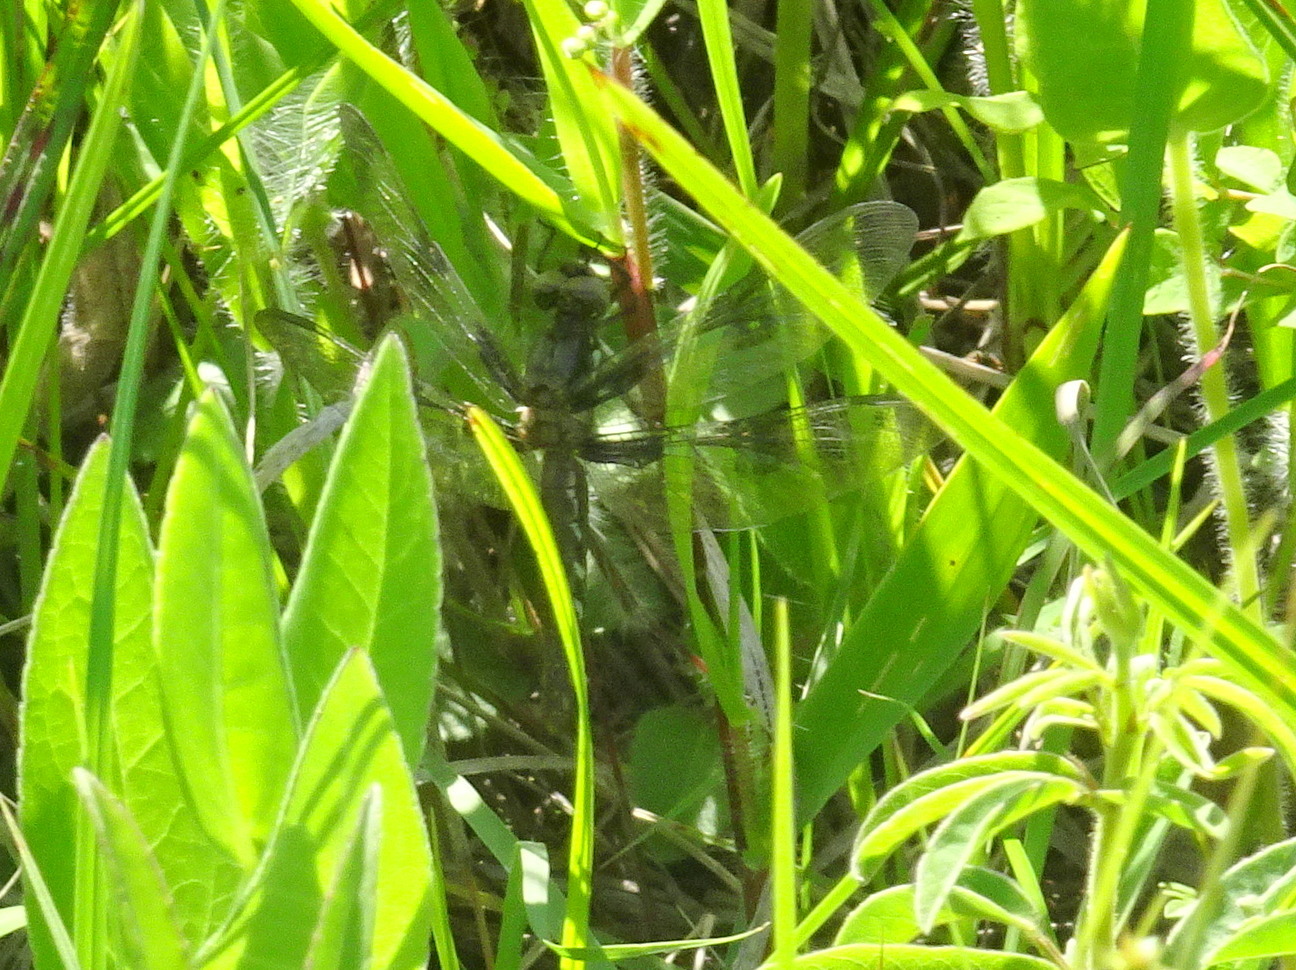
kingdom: Animalia
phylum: Arthropoda
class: Insecta
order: Odonata
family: Libellulidae
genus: Plathemis
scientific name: Plathemis lydia
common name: Common whitetail
